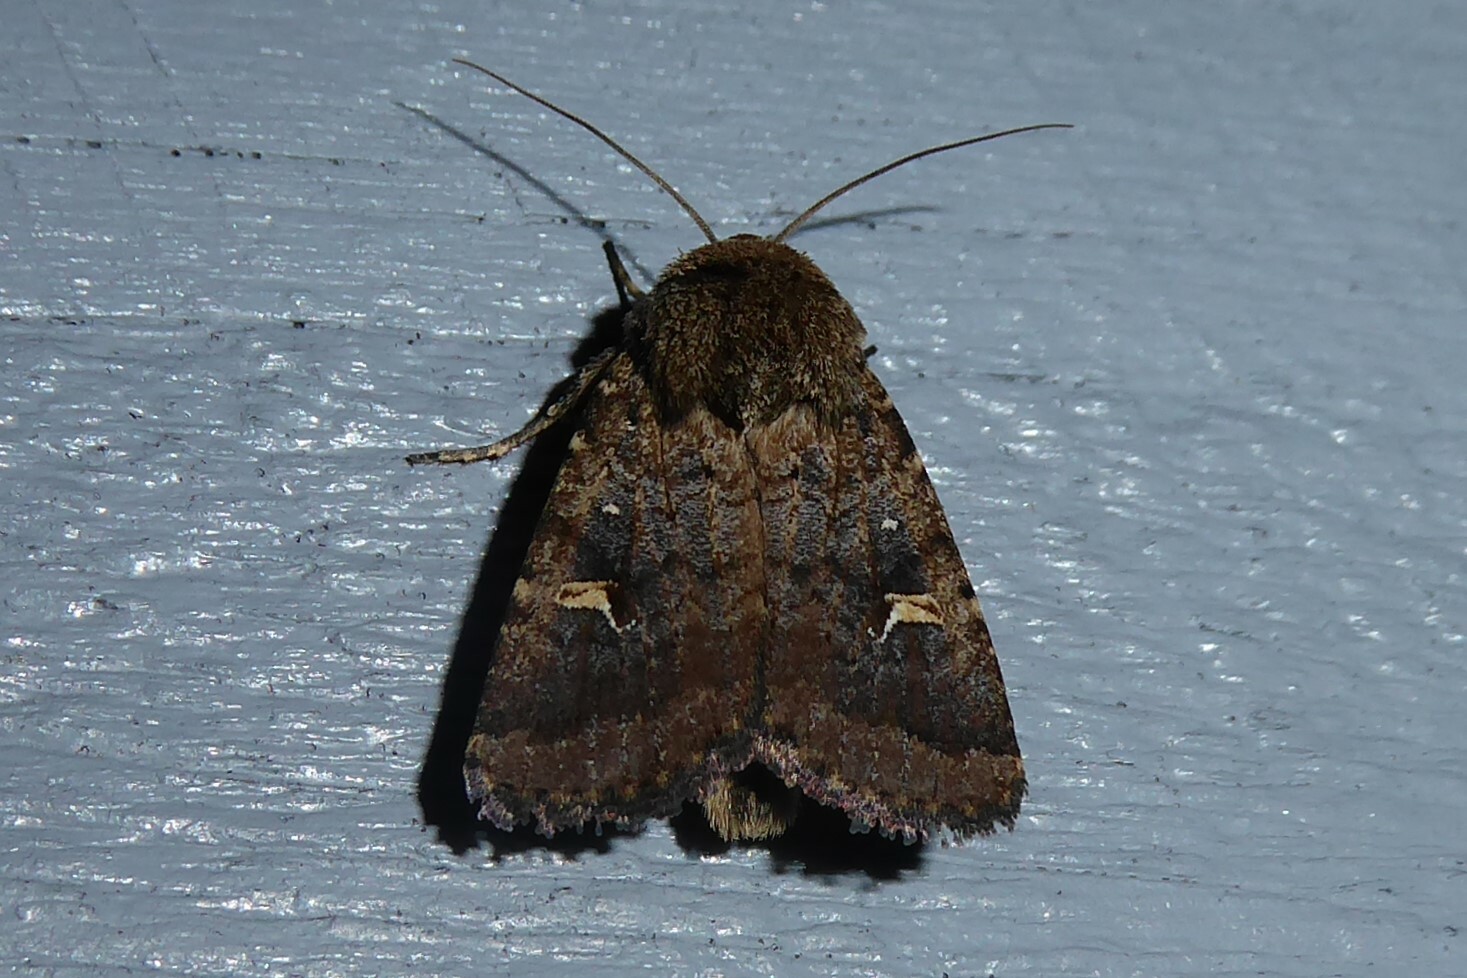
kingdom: Animalia
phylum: Arthropoda
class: Insecta
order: Lepidoptera
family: Noctuidae
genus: Proteuxoa
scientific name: Proteuxoa tetronycha
